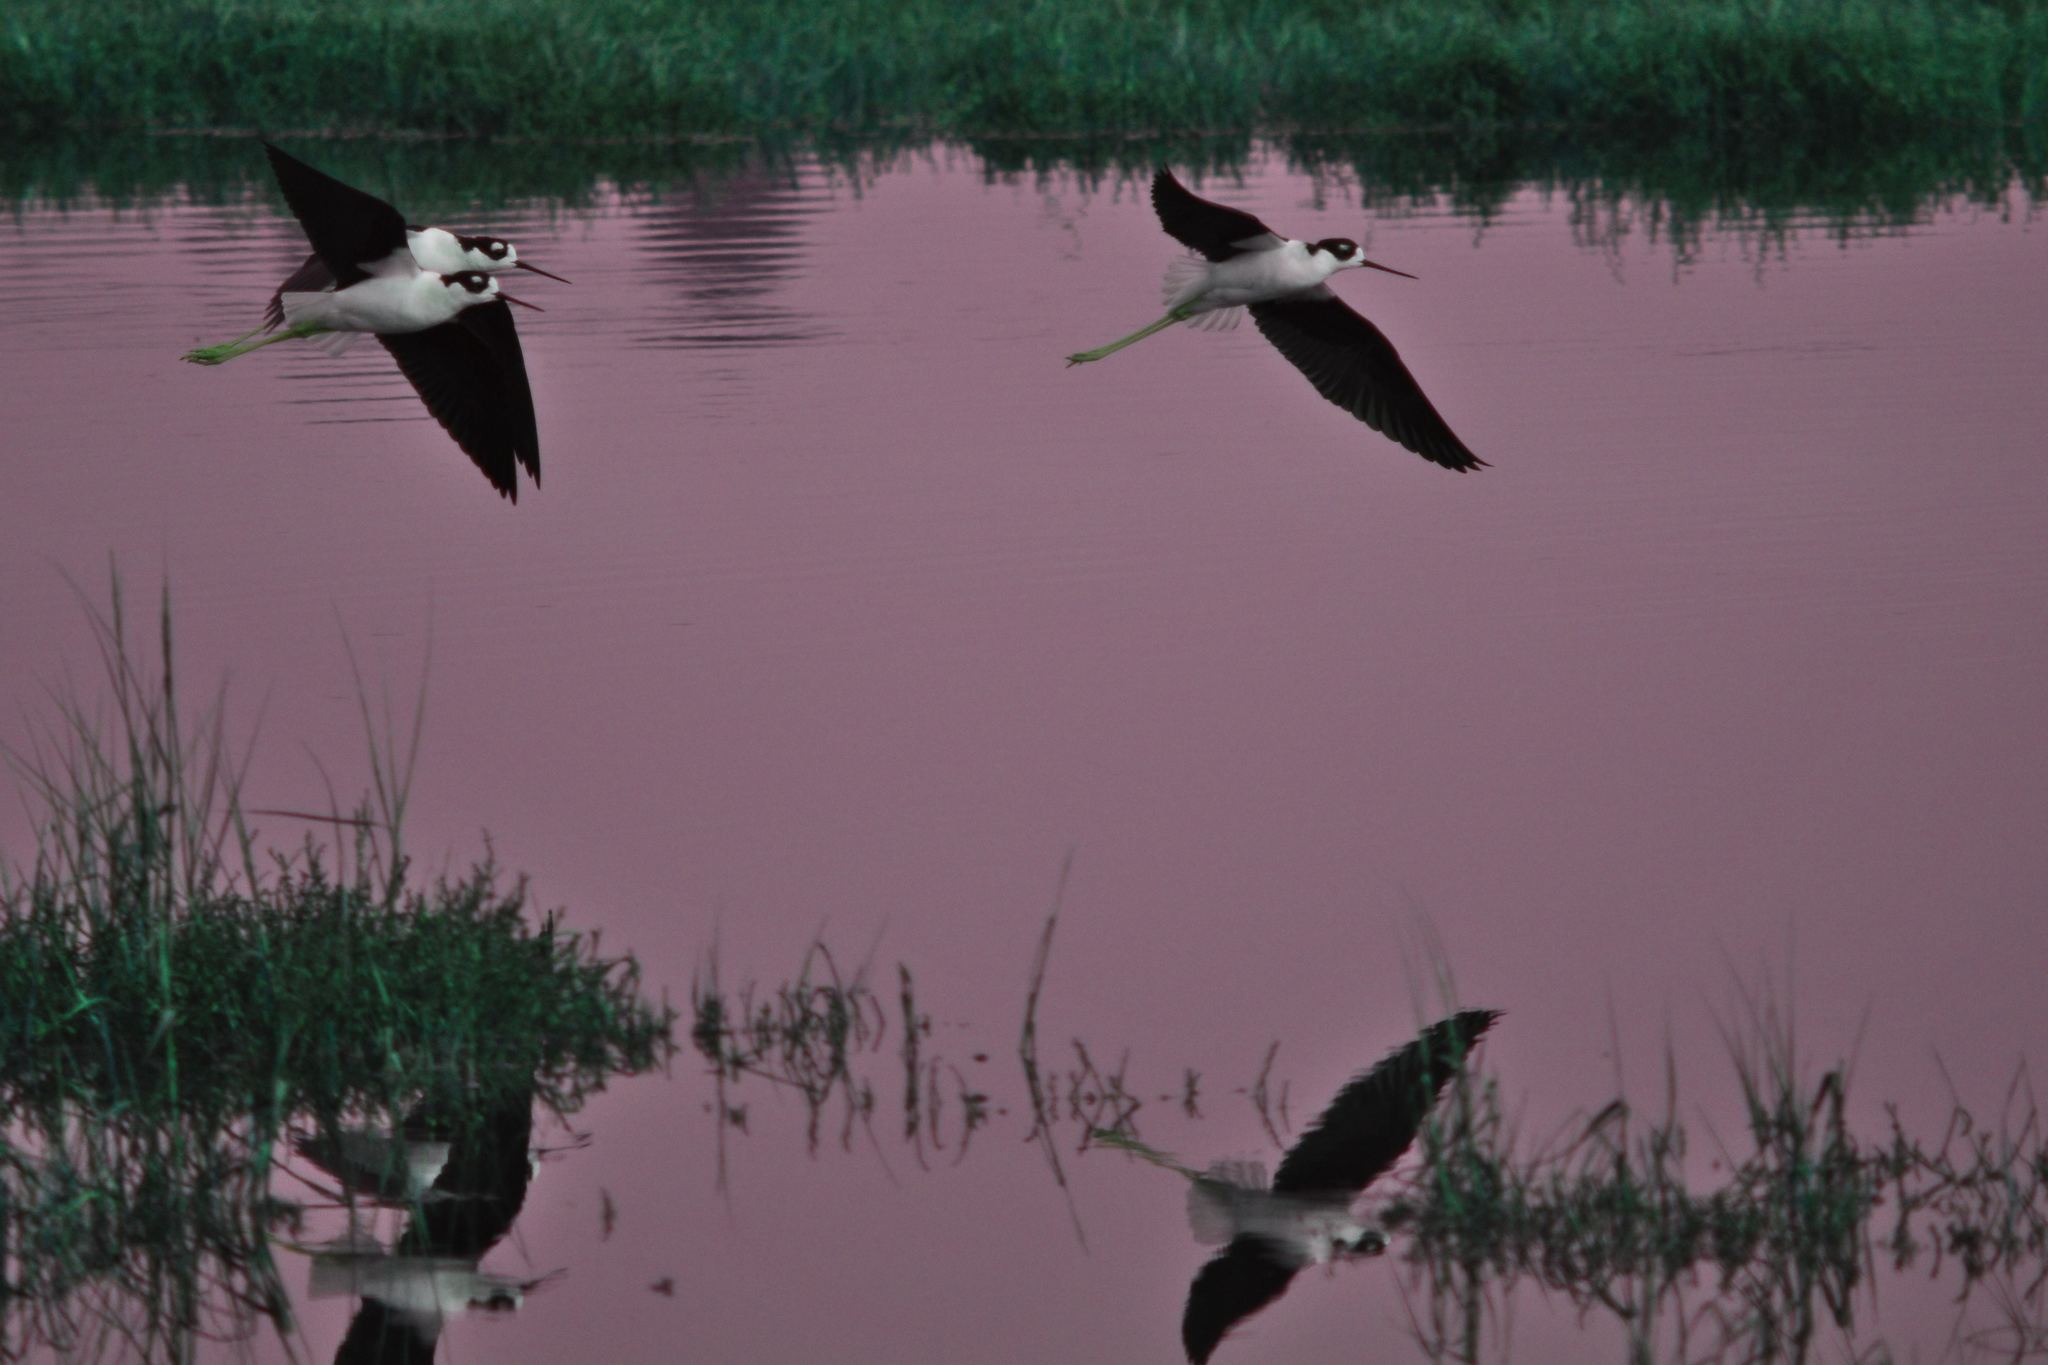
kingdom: Animalia
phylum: Chordata
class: Aves
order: Charadriiformes
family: Recurvirostridae
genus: Himantopus
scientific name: Himantopus mexicanus
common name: Black-necked stilt
